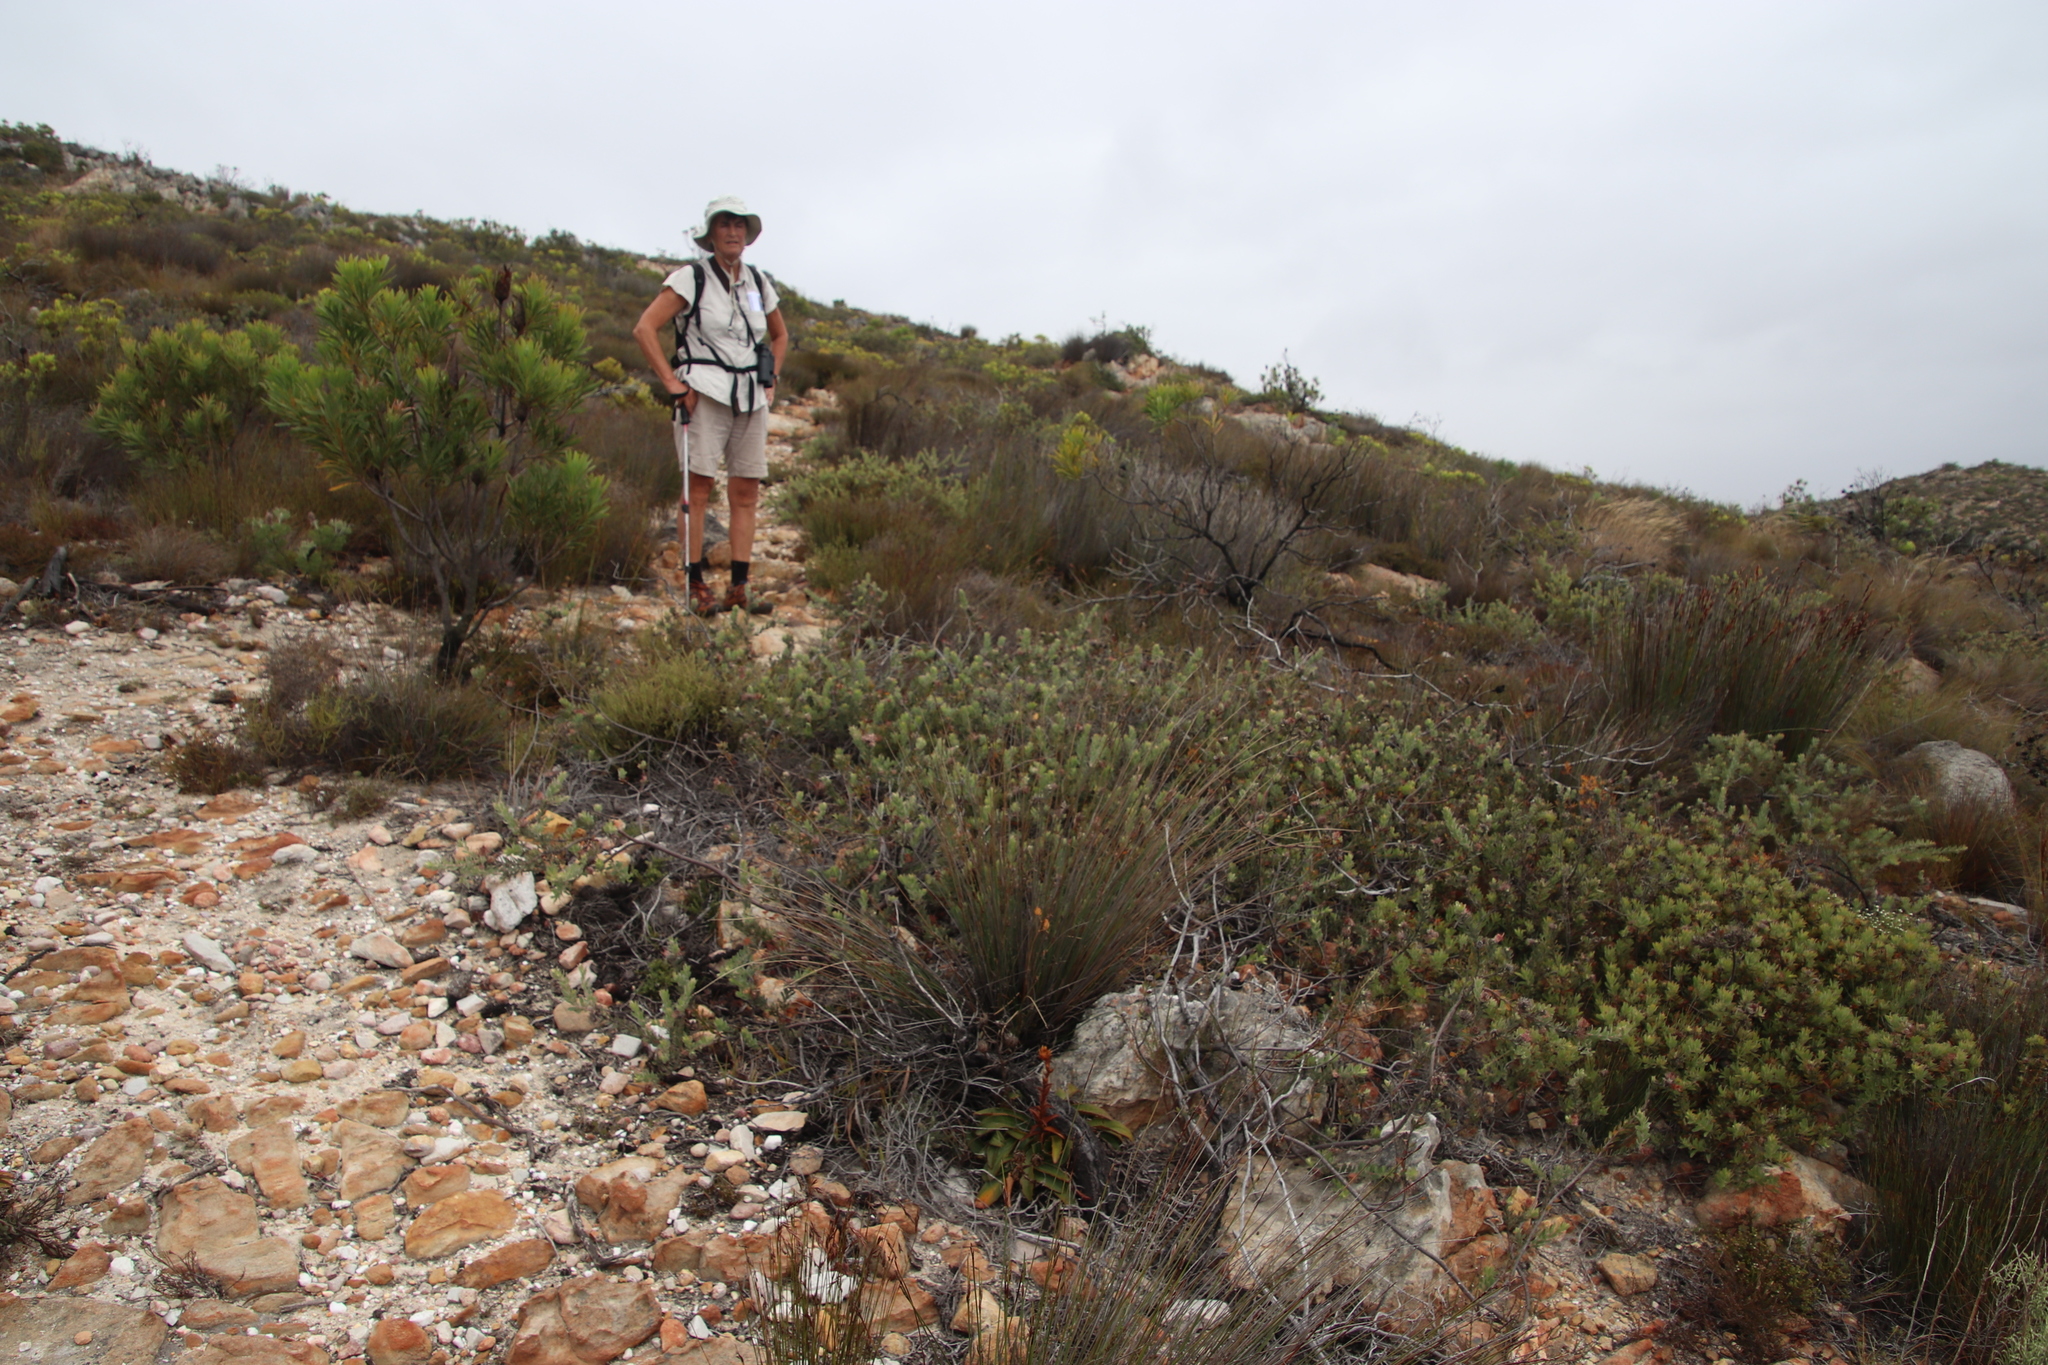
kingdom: Plantae
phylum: Tracheophyta
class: Magnoliopsida
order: Proteales
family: Proteaceae
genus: Leucospermum
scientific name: Leucospermum calligerum
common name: Arid pincushion
